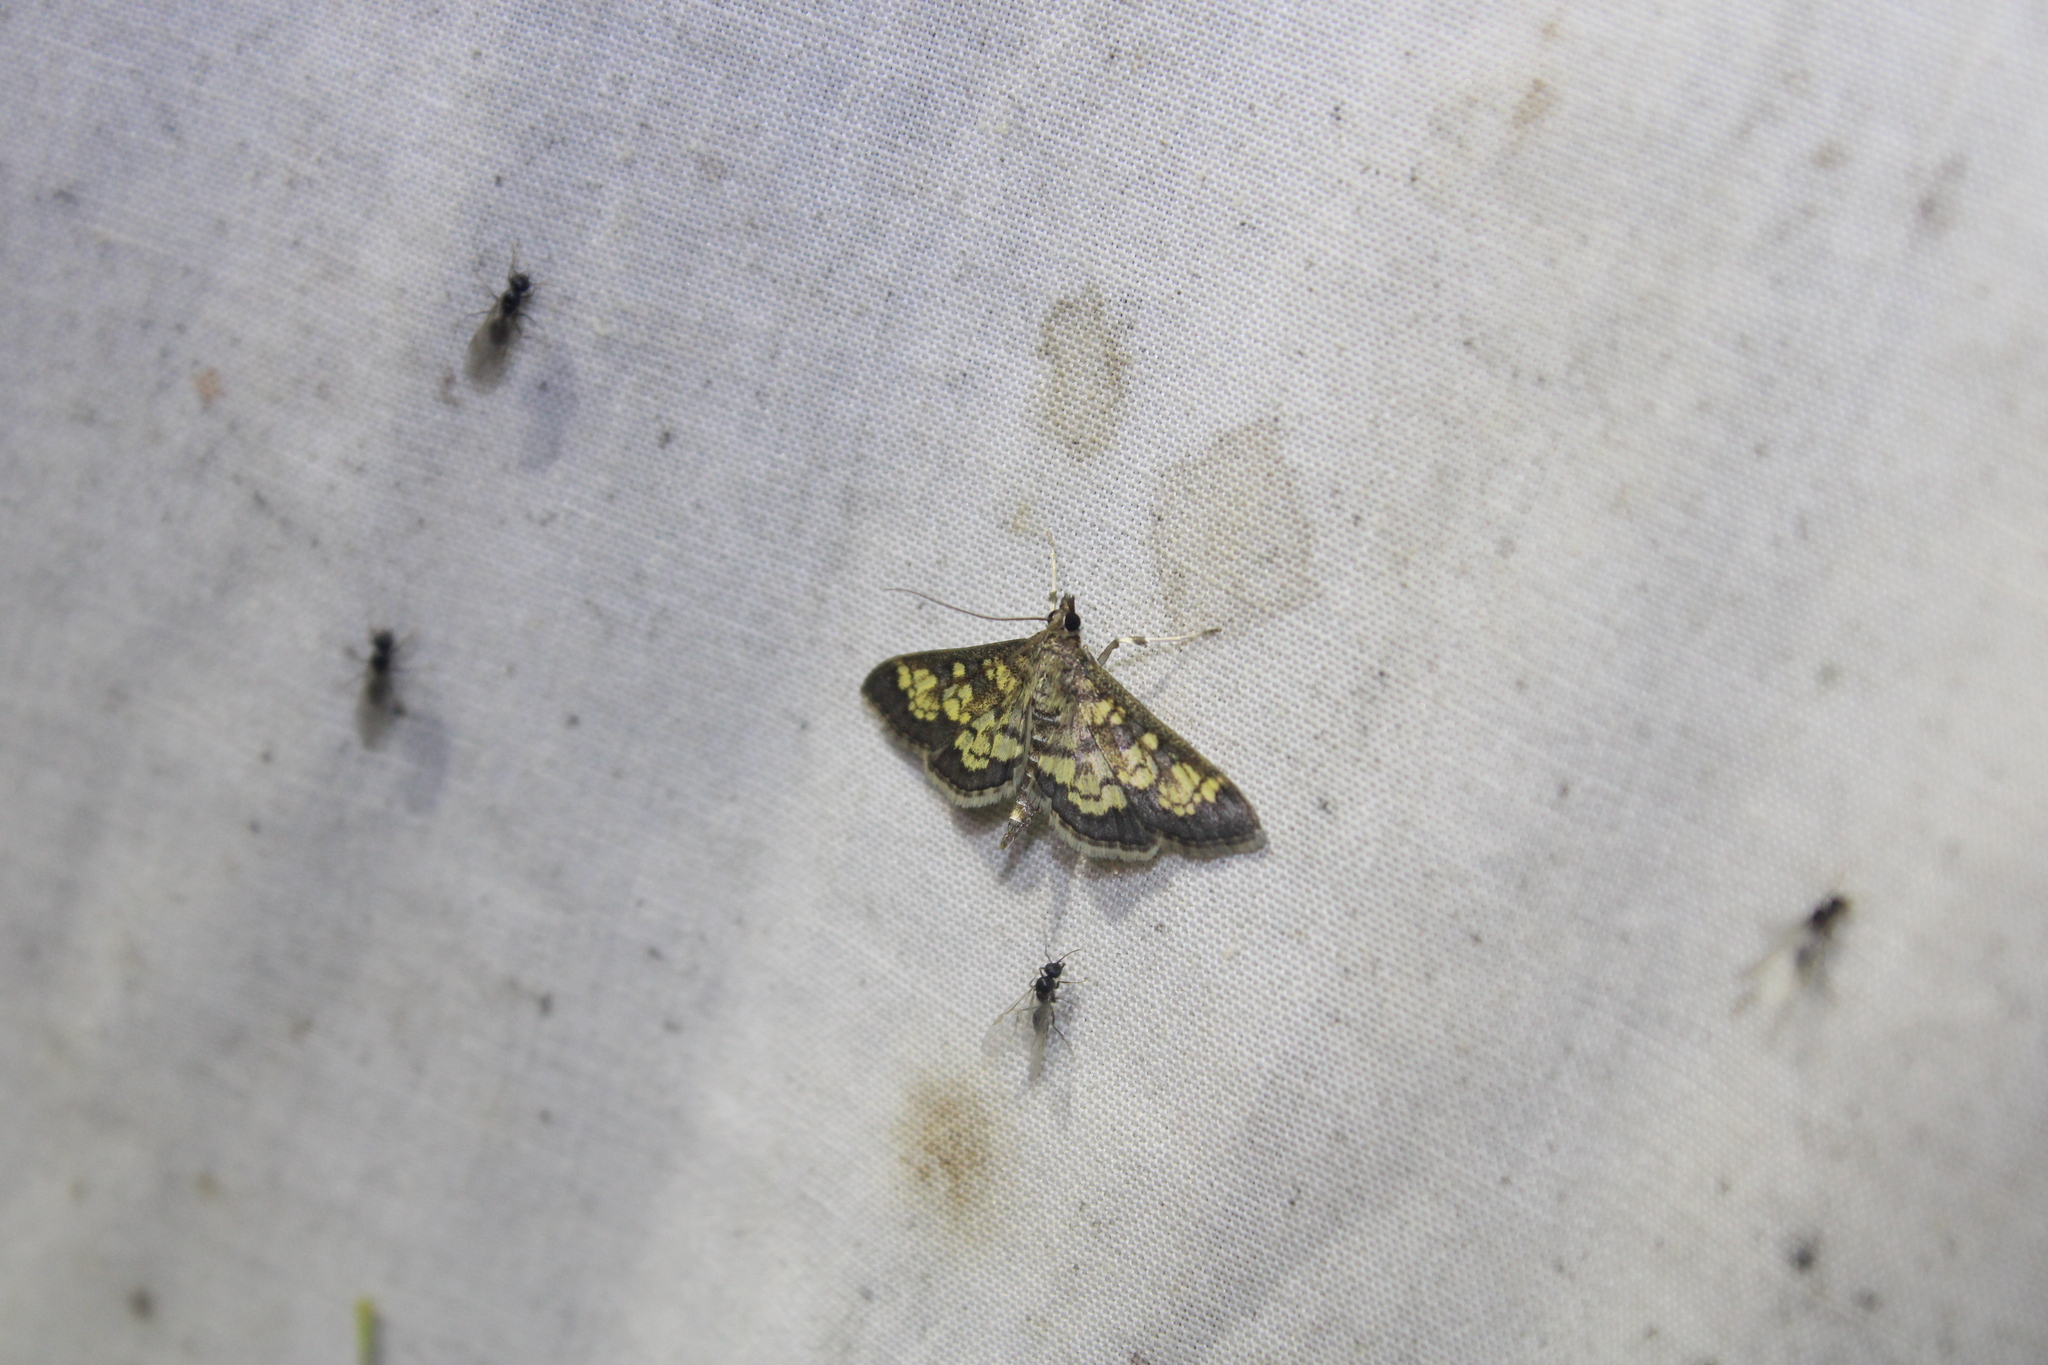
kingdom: Animalia
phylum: Arthropoda
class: Insecta
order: Lepidoptera
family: Crambidae
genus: Epipagis
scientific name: Epipagis adipaloides
